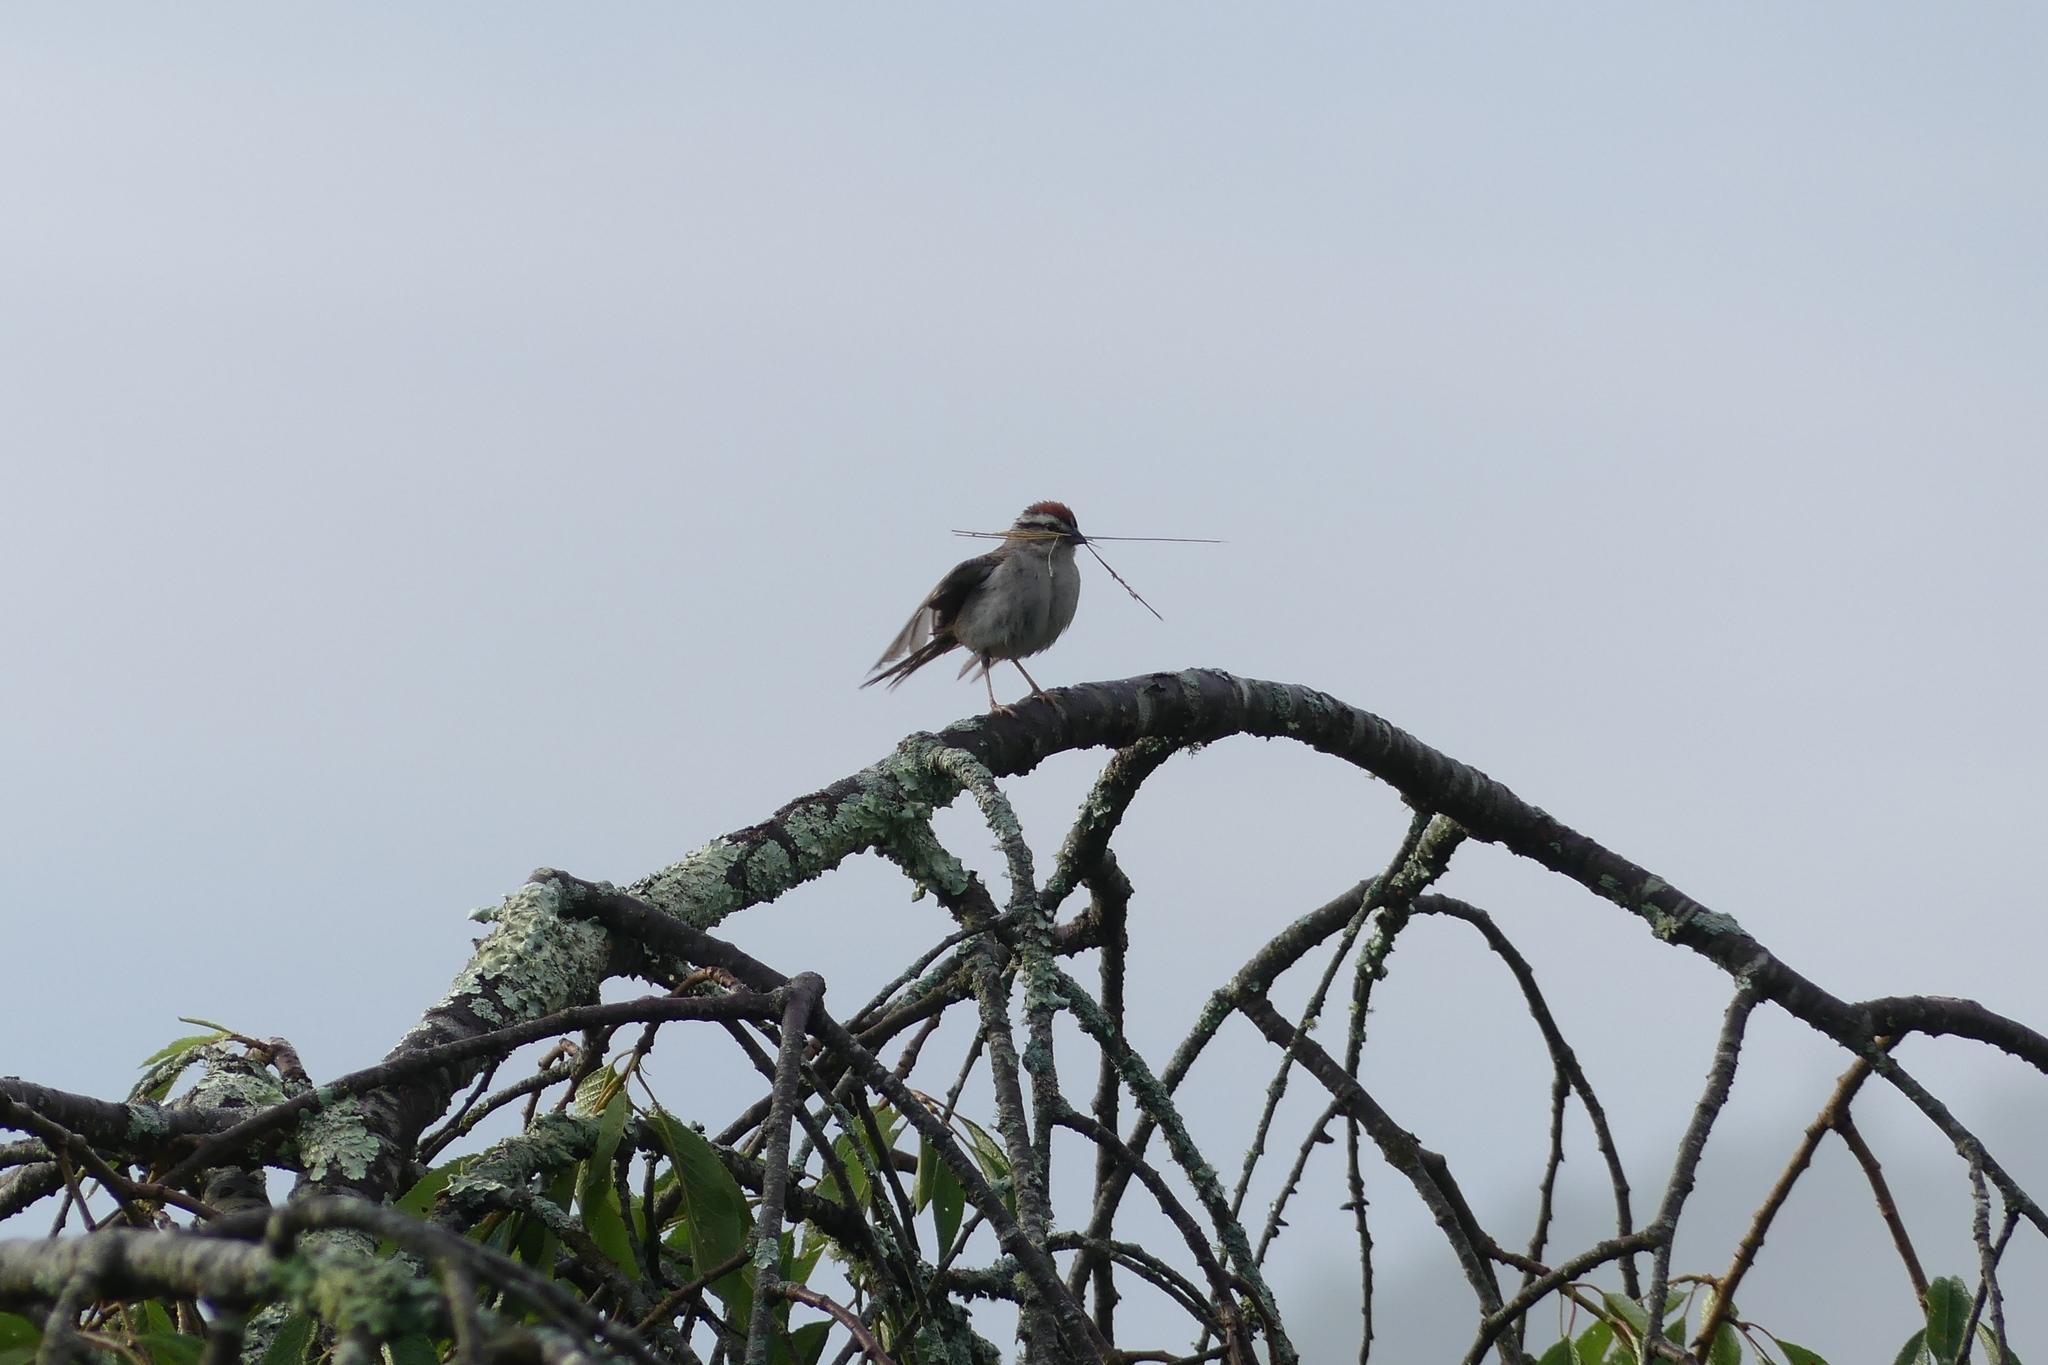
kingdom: Animalia
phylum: Chordata
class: Aves
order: Passeriformes
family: Passerellidae
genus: Spizella
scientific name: Spizella passerina
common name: Chipping sparrow
